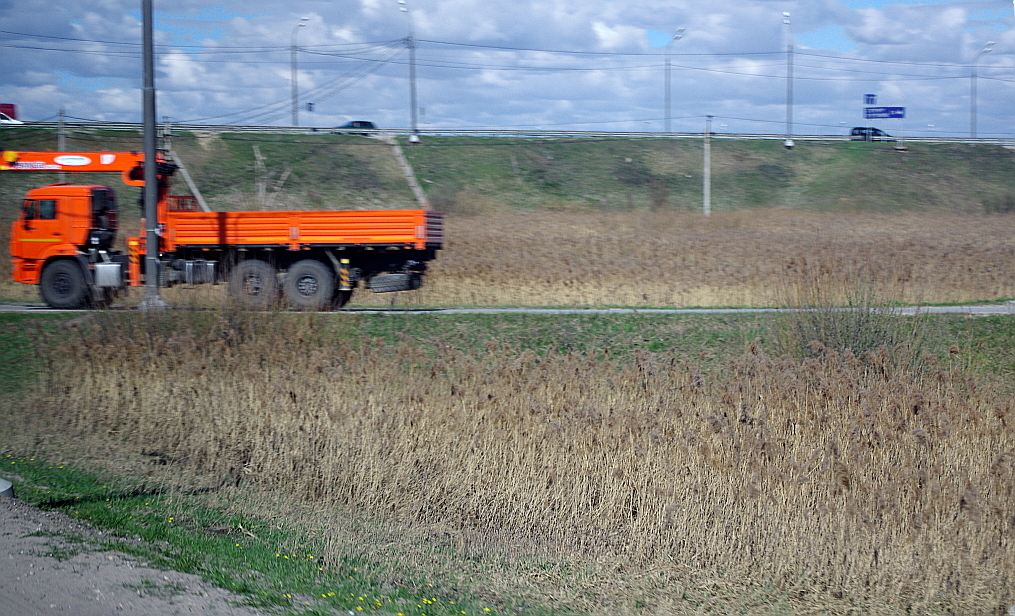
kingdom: Plantae
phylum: Tracheophyta
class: Liliopsida
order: Poales
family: Poaceae
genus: Phragmites
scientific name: Phragmites australis
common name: Common reed
